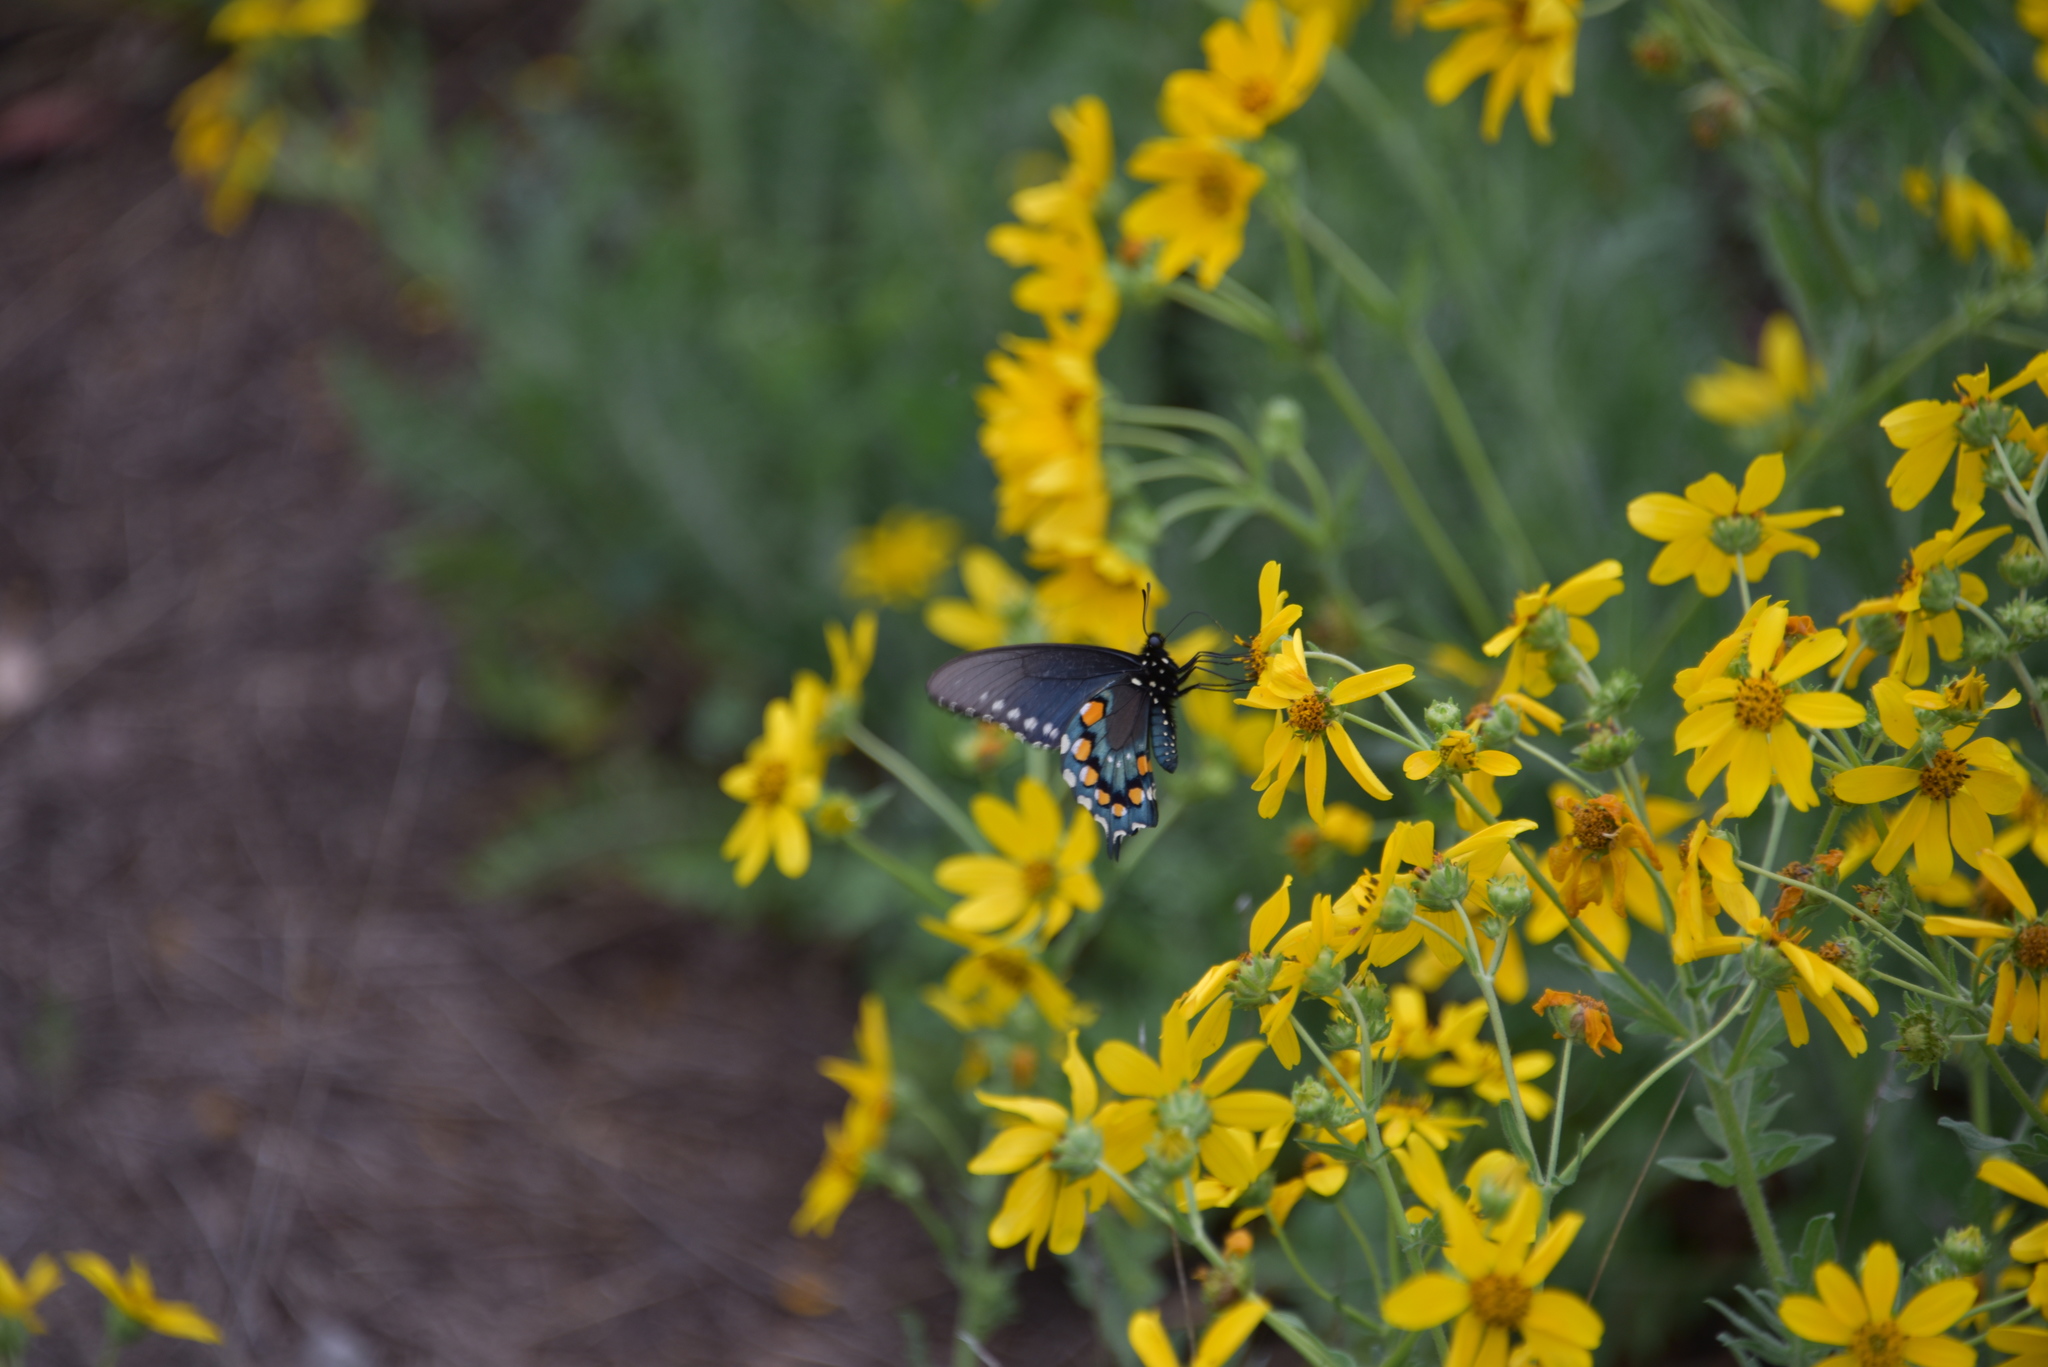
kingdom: Animalia
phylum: Arthropoda
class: Insecta
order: Lepidoptera
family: Papilionidae
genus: Battus
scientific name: Battus philenor
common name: Pipevine swallowtail
